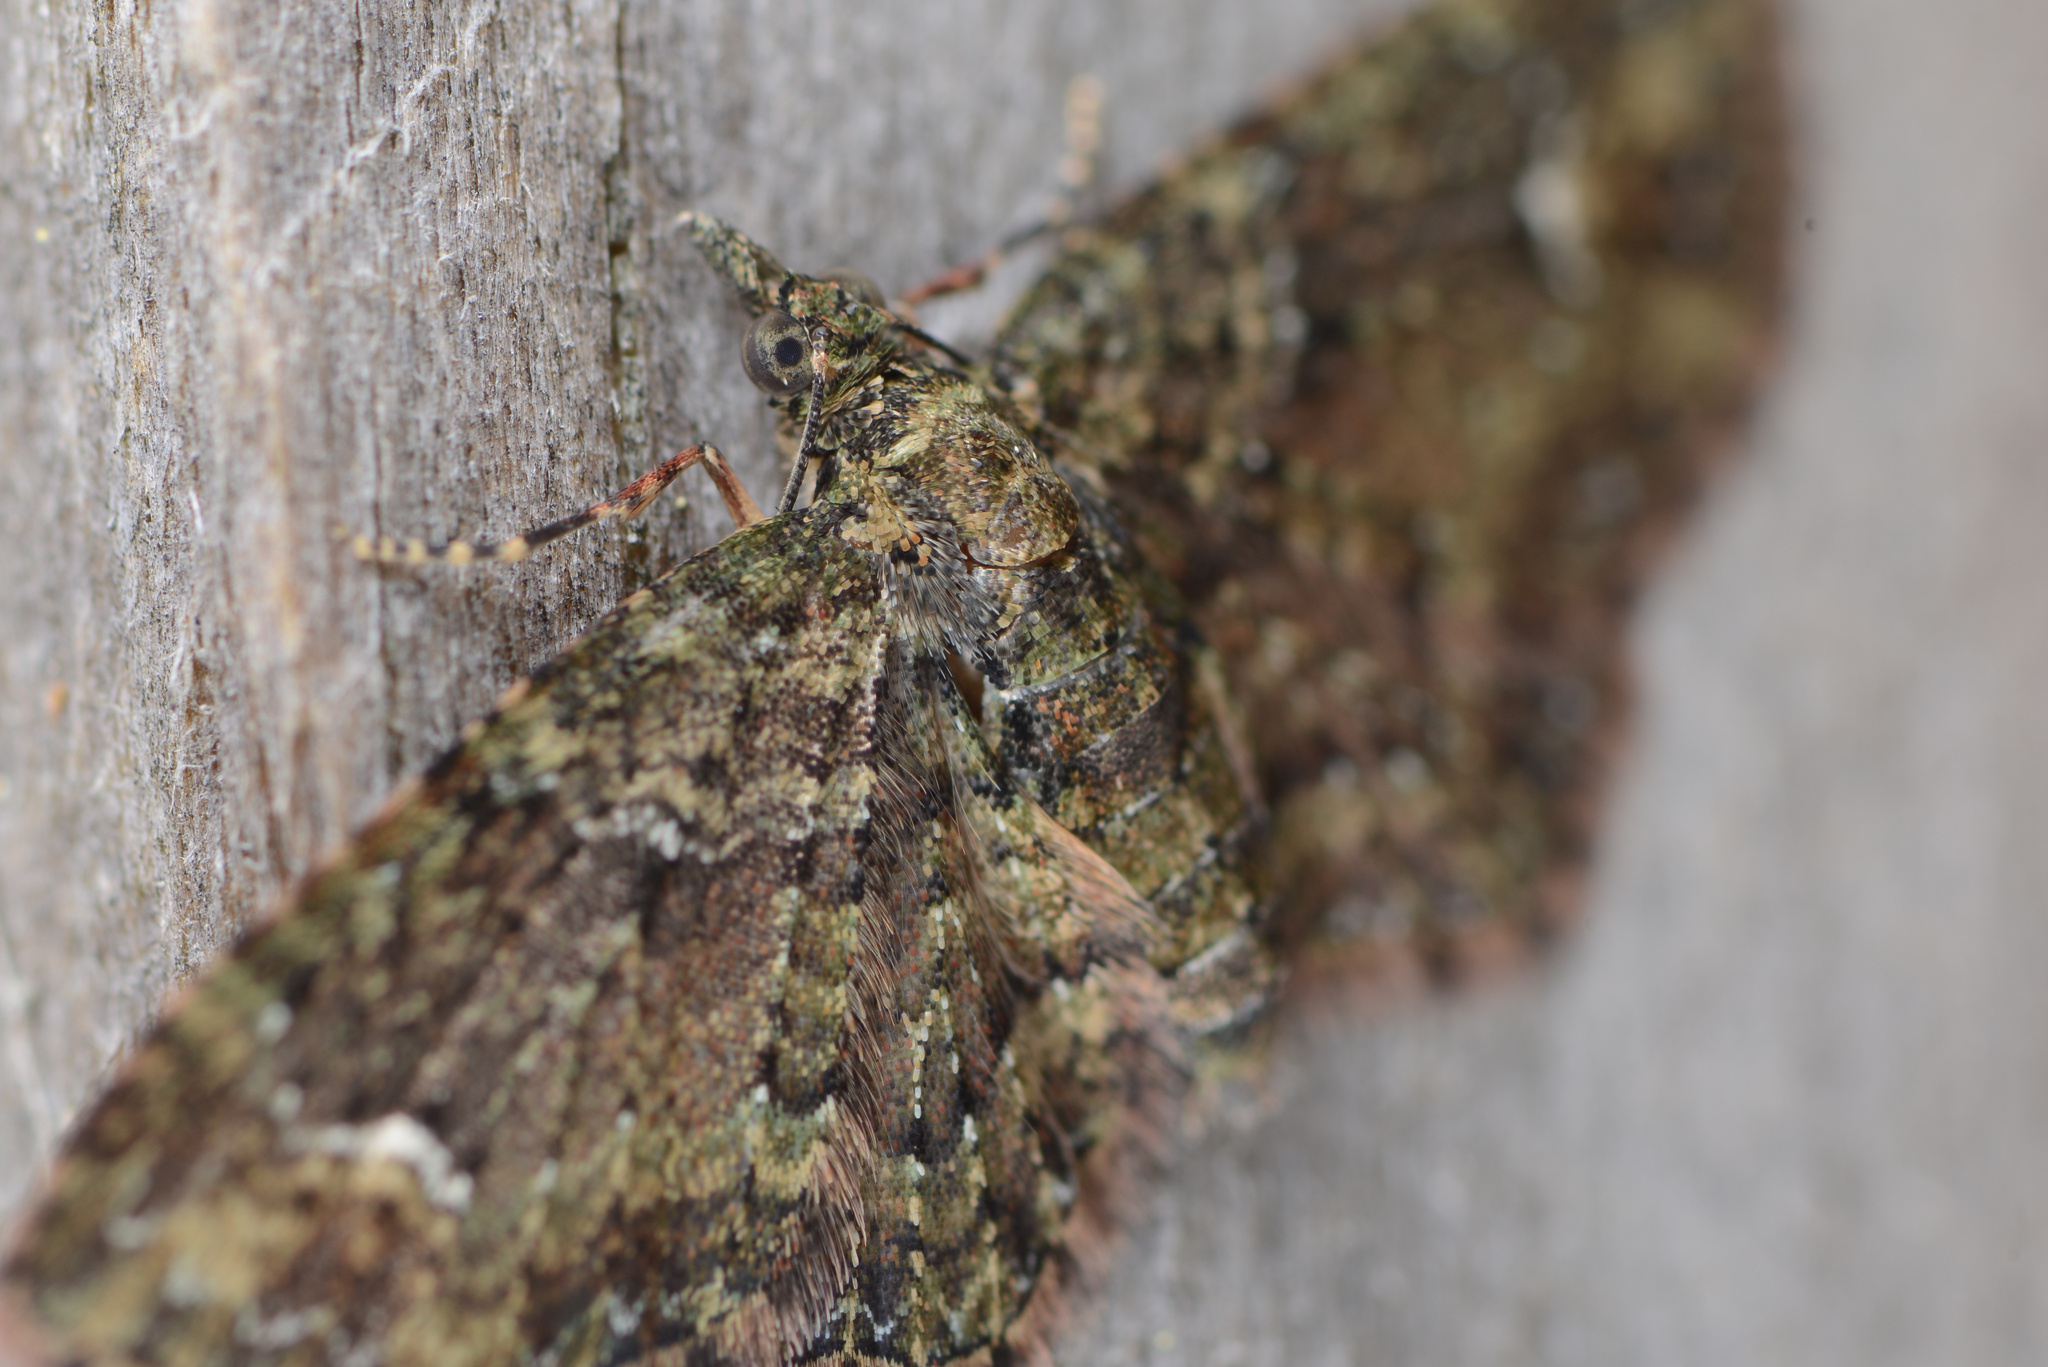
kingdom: Animalia
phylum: Arthropoda
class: Insecta
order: Lepidoptera
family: Geometridae
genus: Idaea
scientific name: Idaea mutanda
